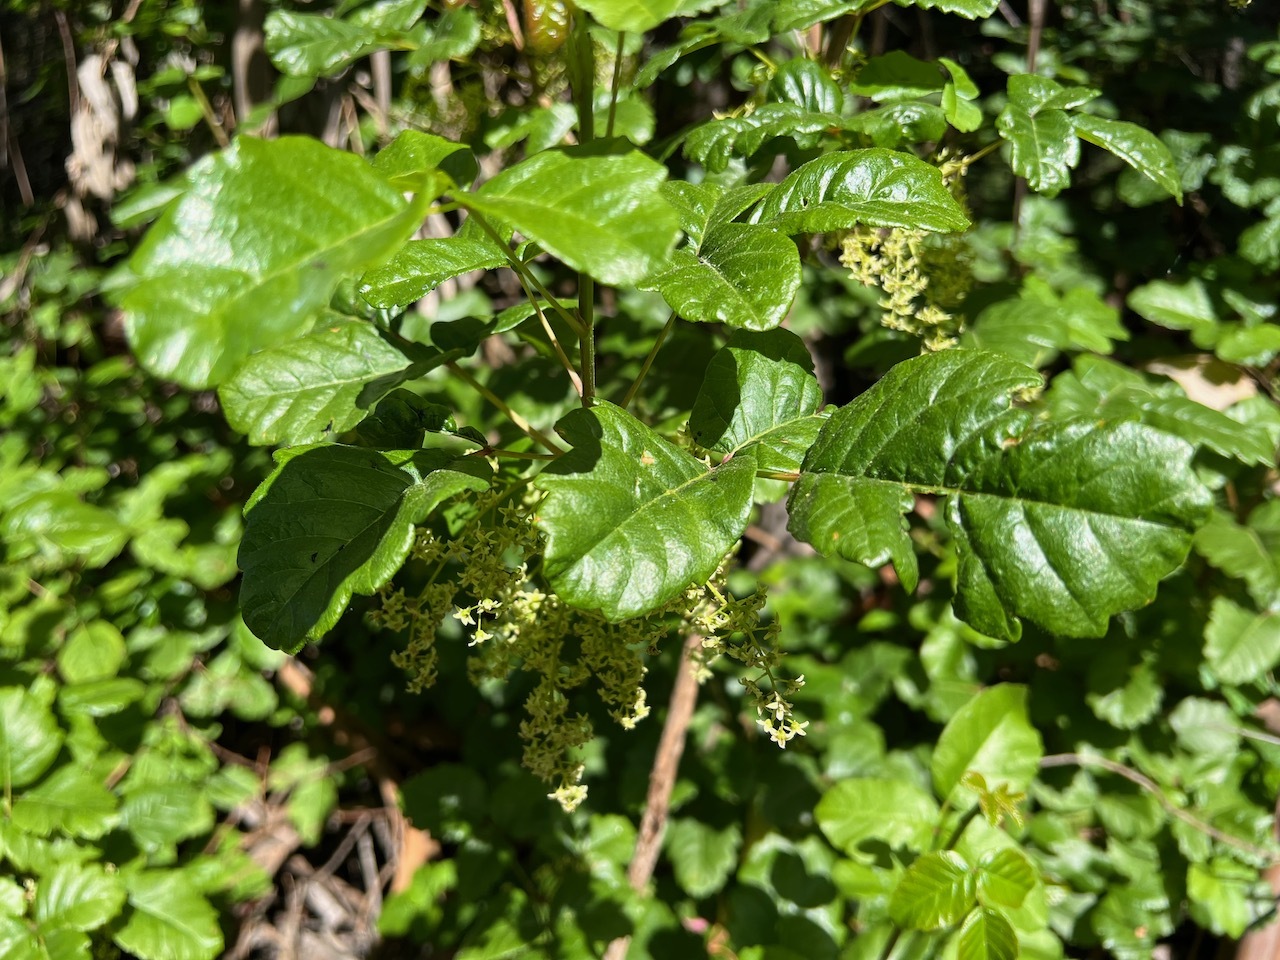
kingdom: Plantae
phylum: Tracheophyta
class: Magnoliopsida
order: Sapindales
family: Anacardiaceae
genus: Toxicodendron
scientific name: Toxicodendron diversilobum
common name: Pacific poison-oak
